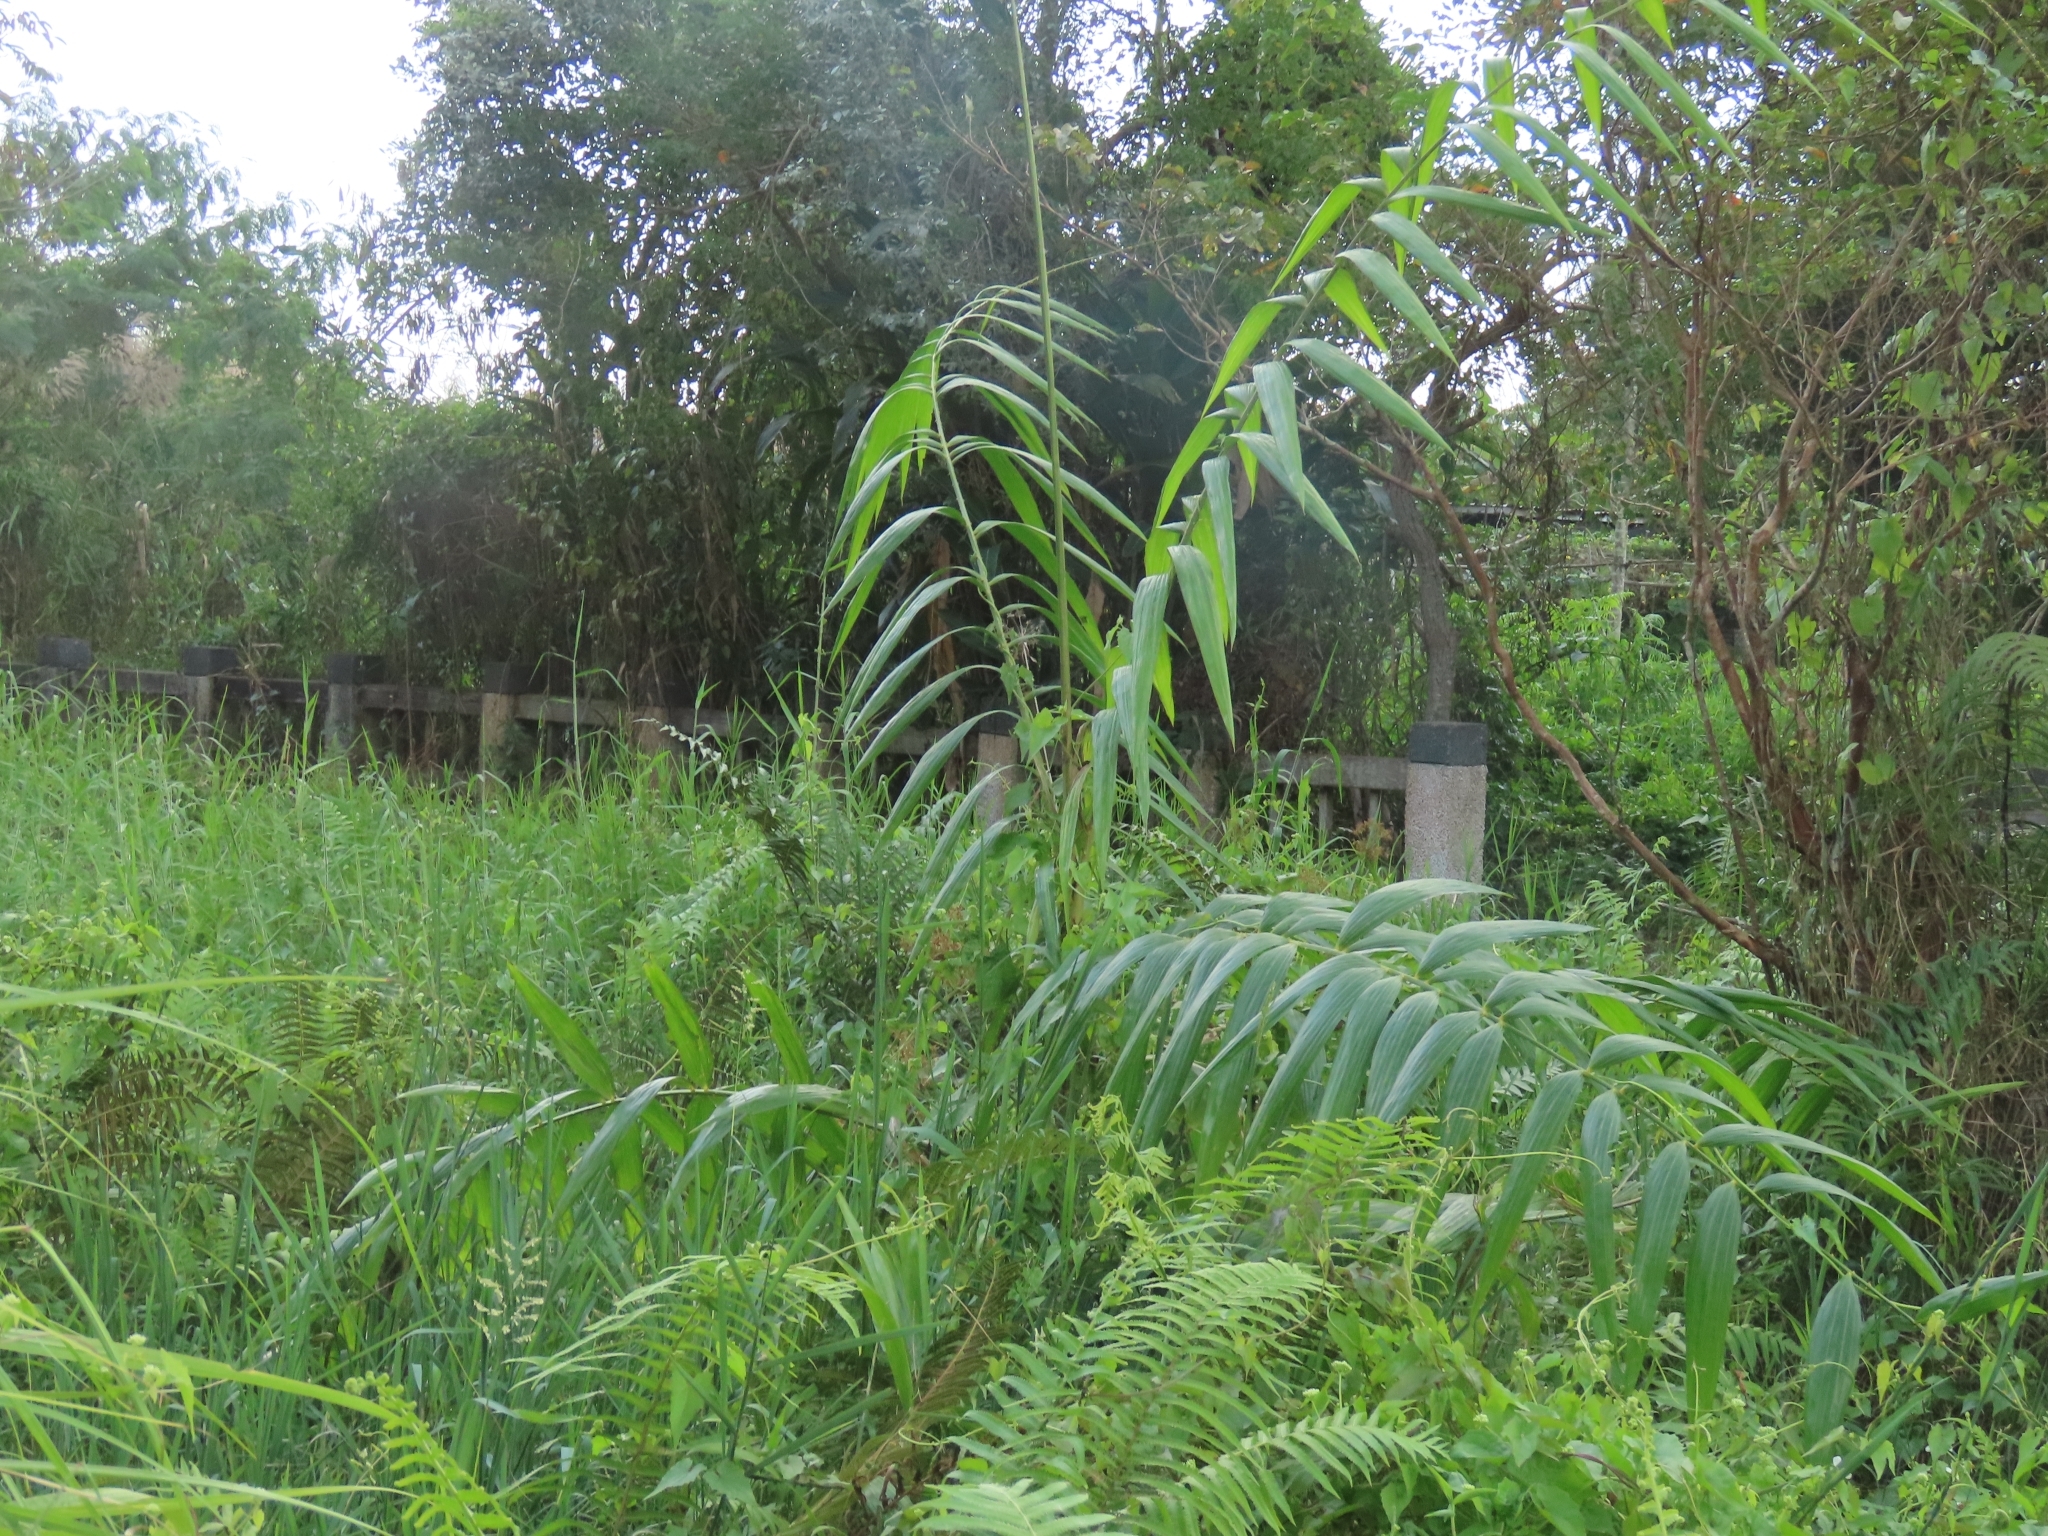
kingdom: Plantae
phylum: Tracheophyta
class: Liliopsida
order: Arecales
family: Arecaceae
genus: Calamus
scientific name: Calamus formosanus
